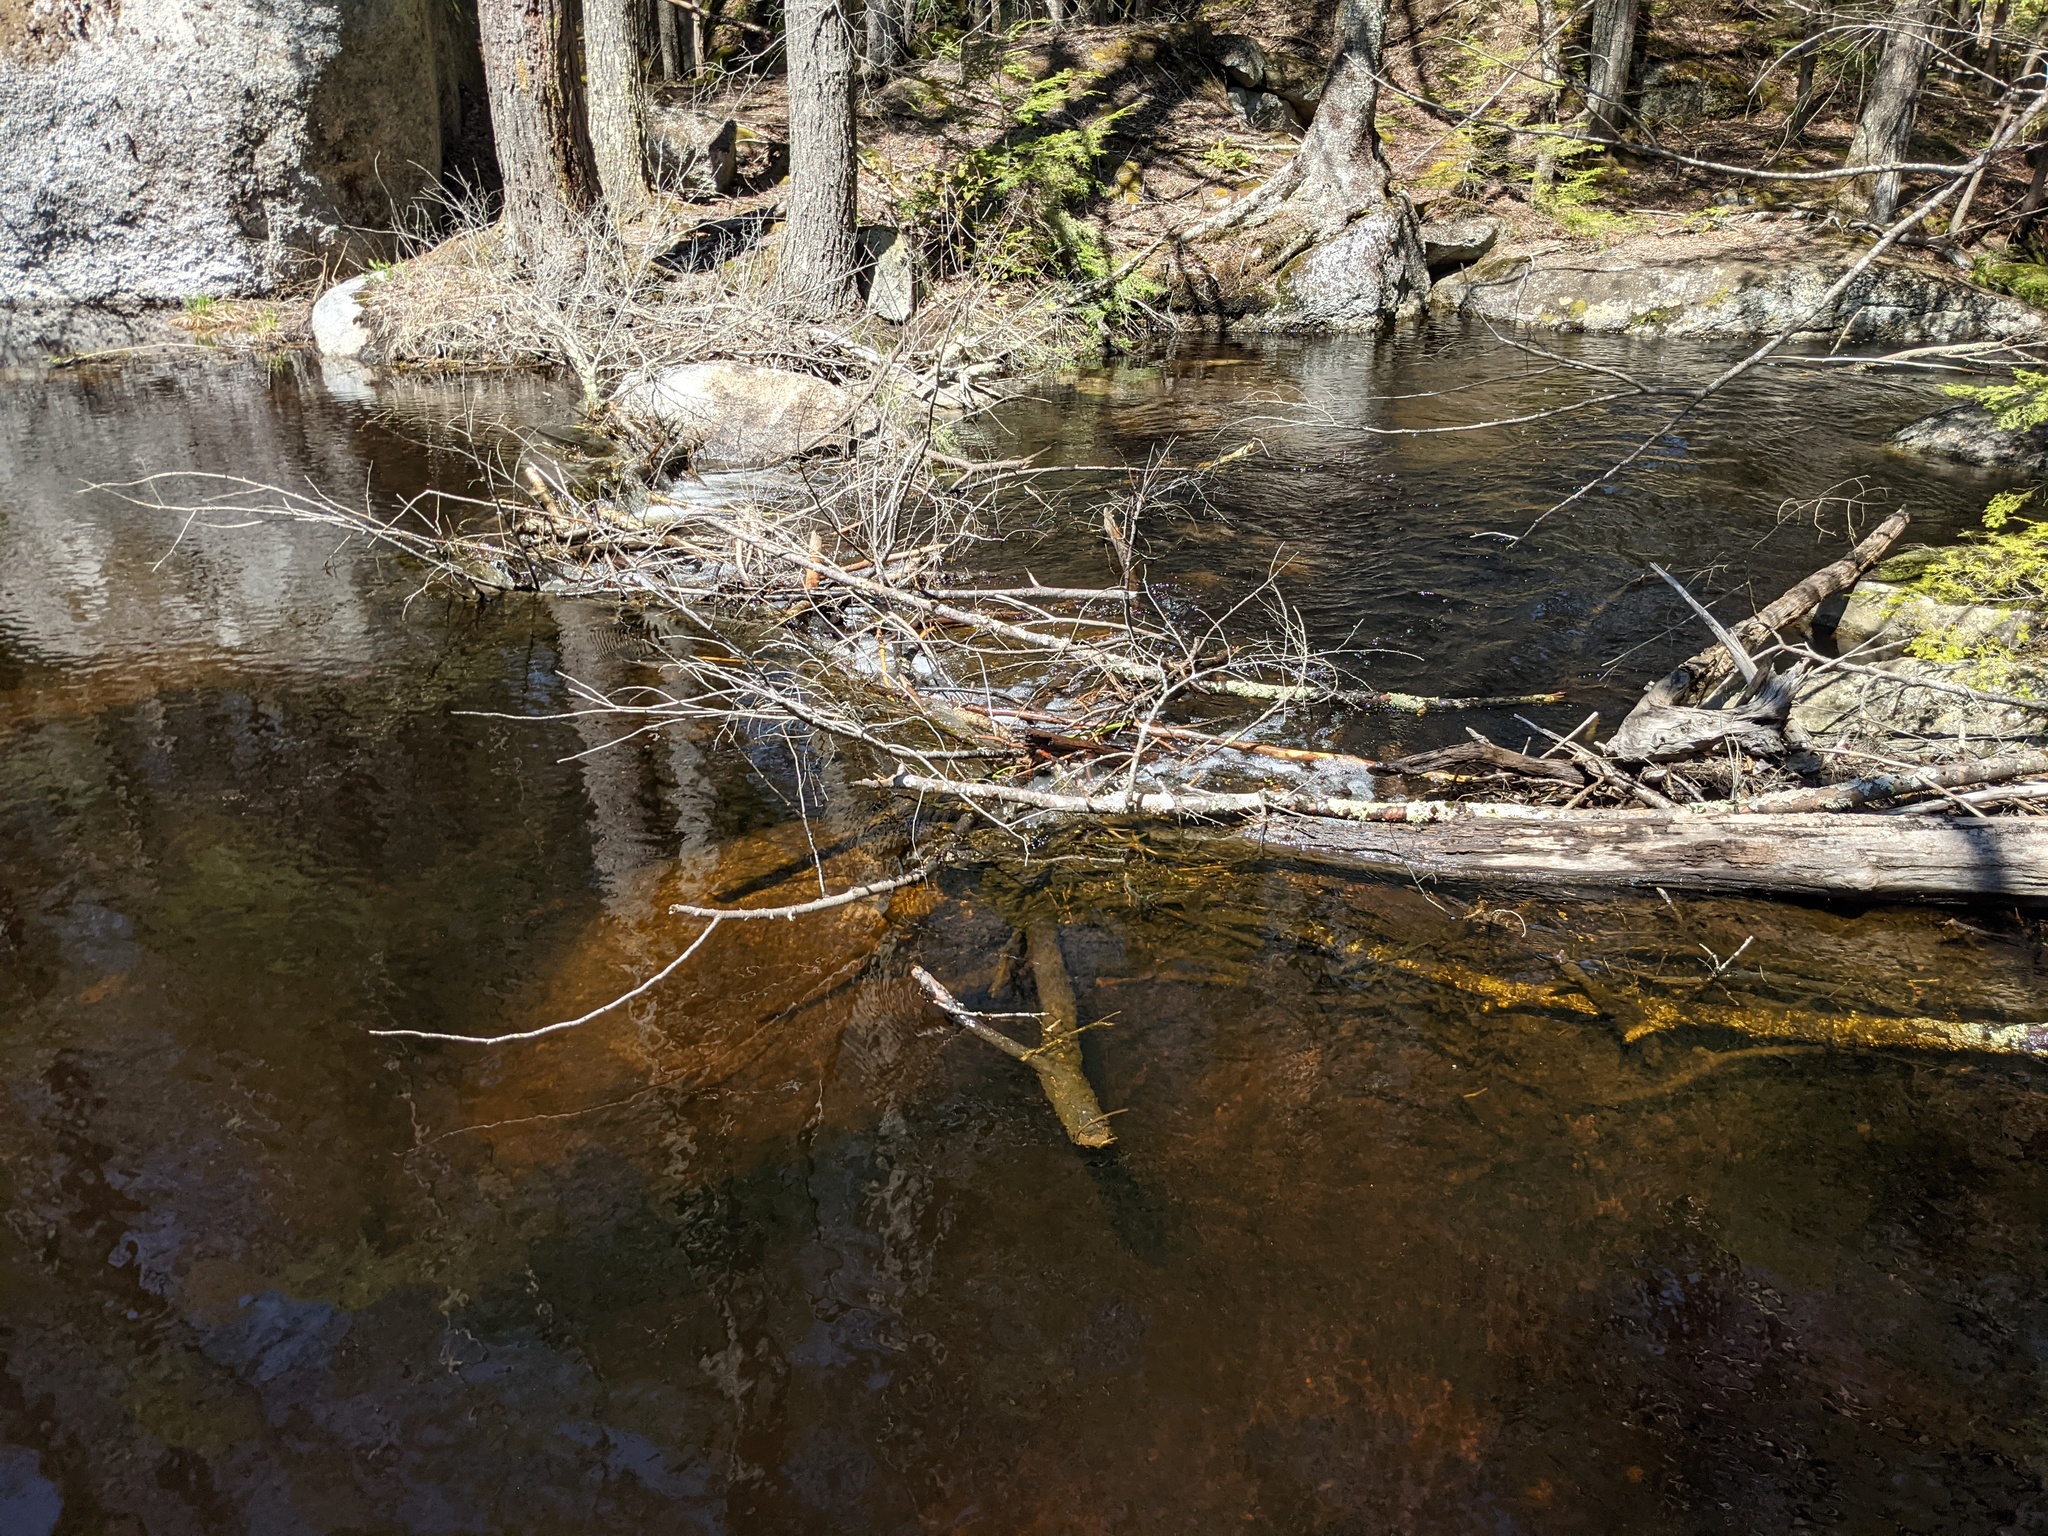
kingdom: Animalia
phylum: Chordata
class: Mammalia
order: Rodentia
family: Castoridae
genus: Castor
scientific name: Castor canadensis
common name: American beaver
